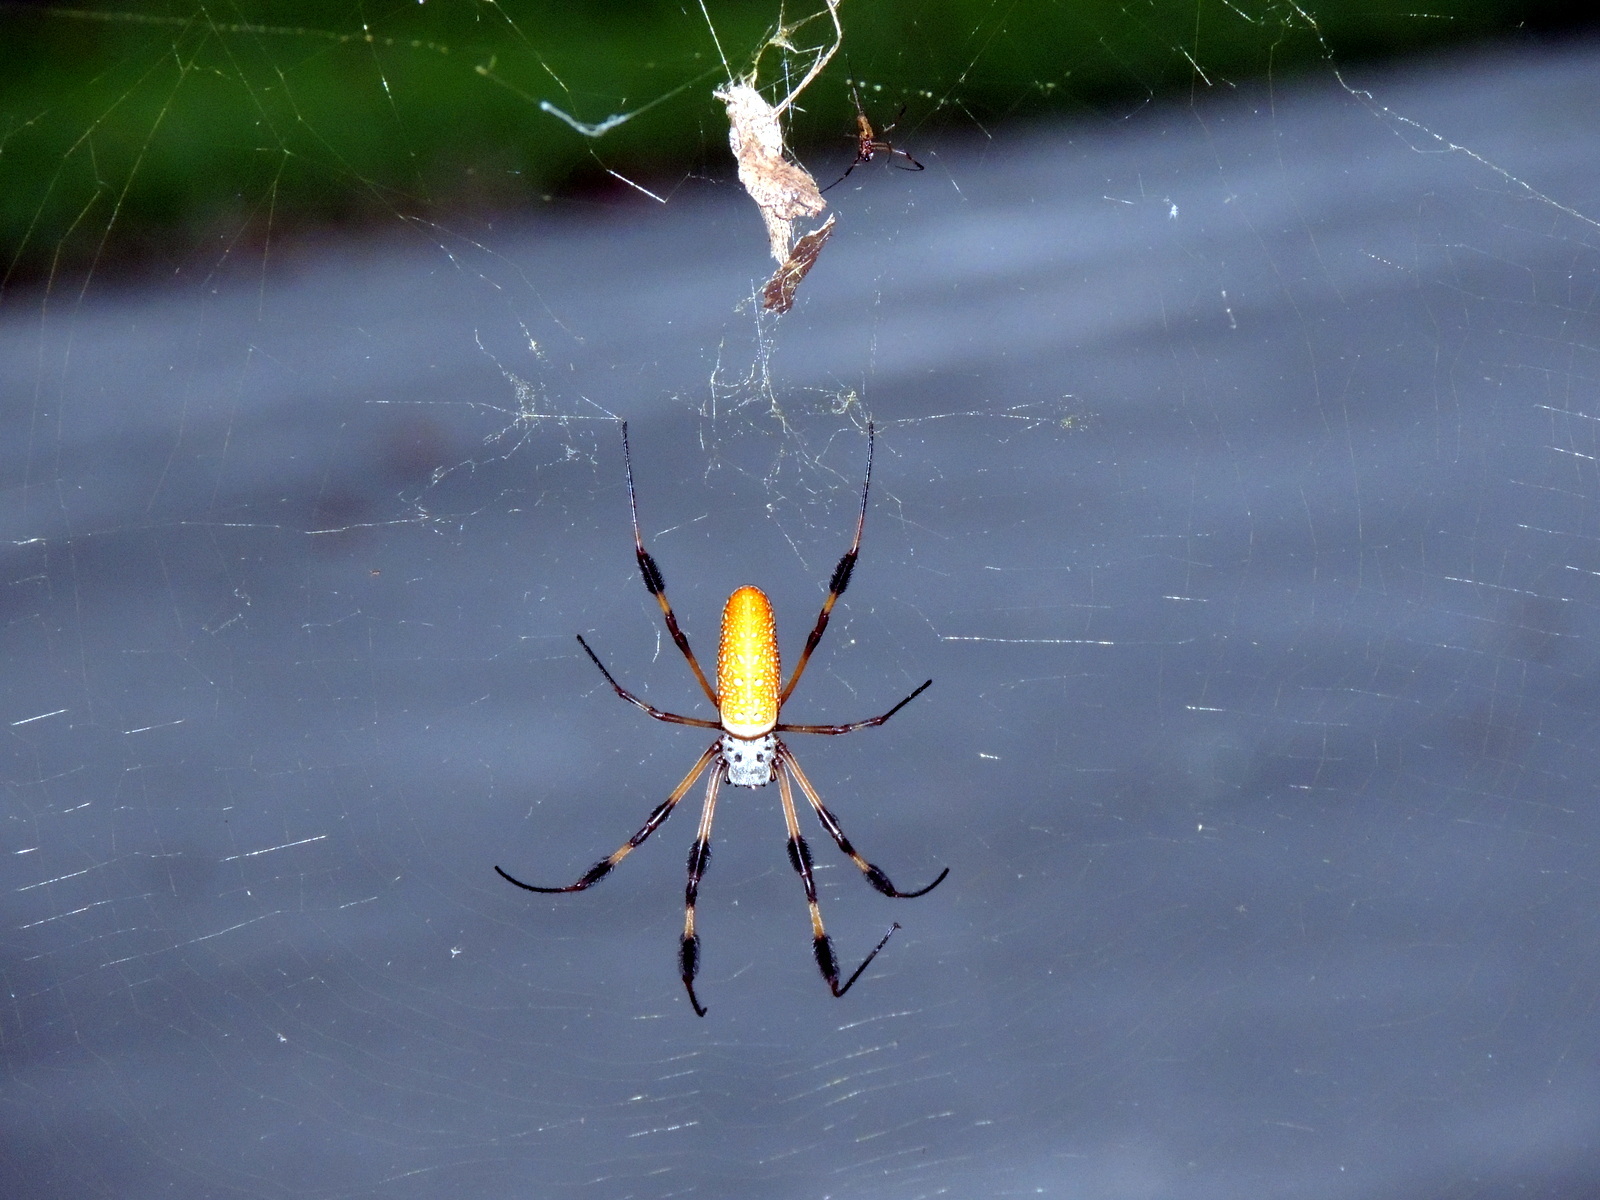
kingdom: Animalia
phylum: Arthropoda
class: Arachnida
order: Araneae
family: Araneidae
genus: Trichonephila
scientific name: Trichonephila clavipes
